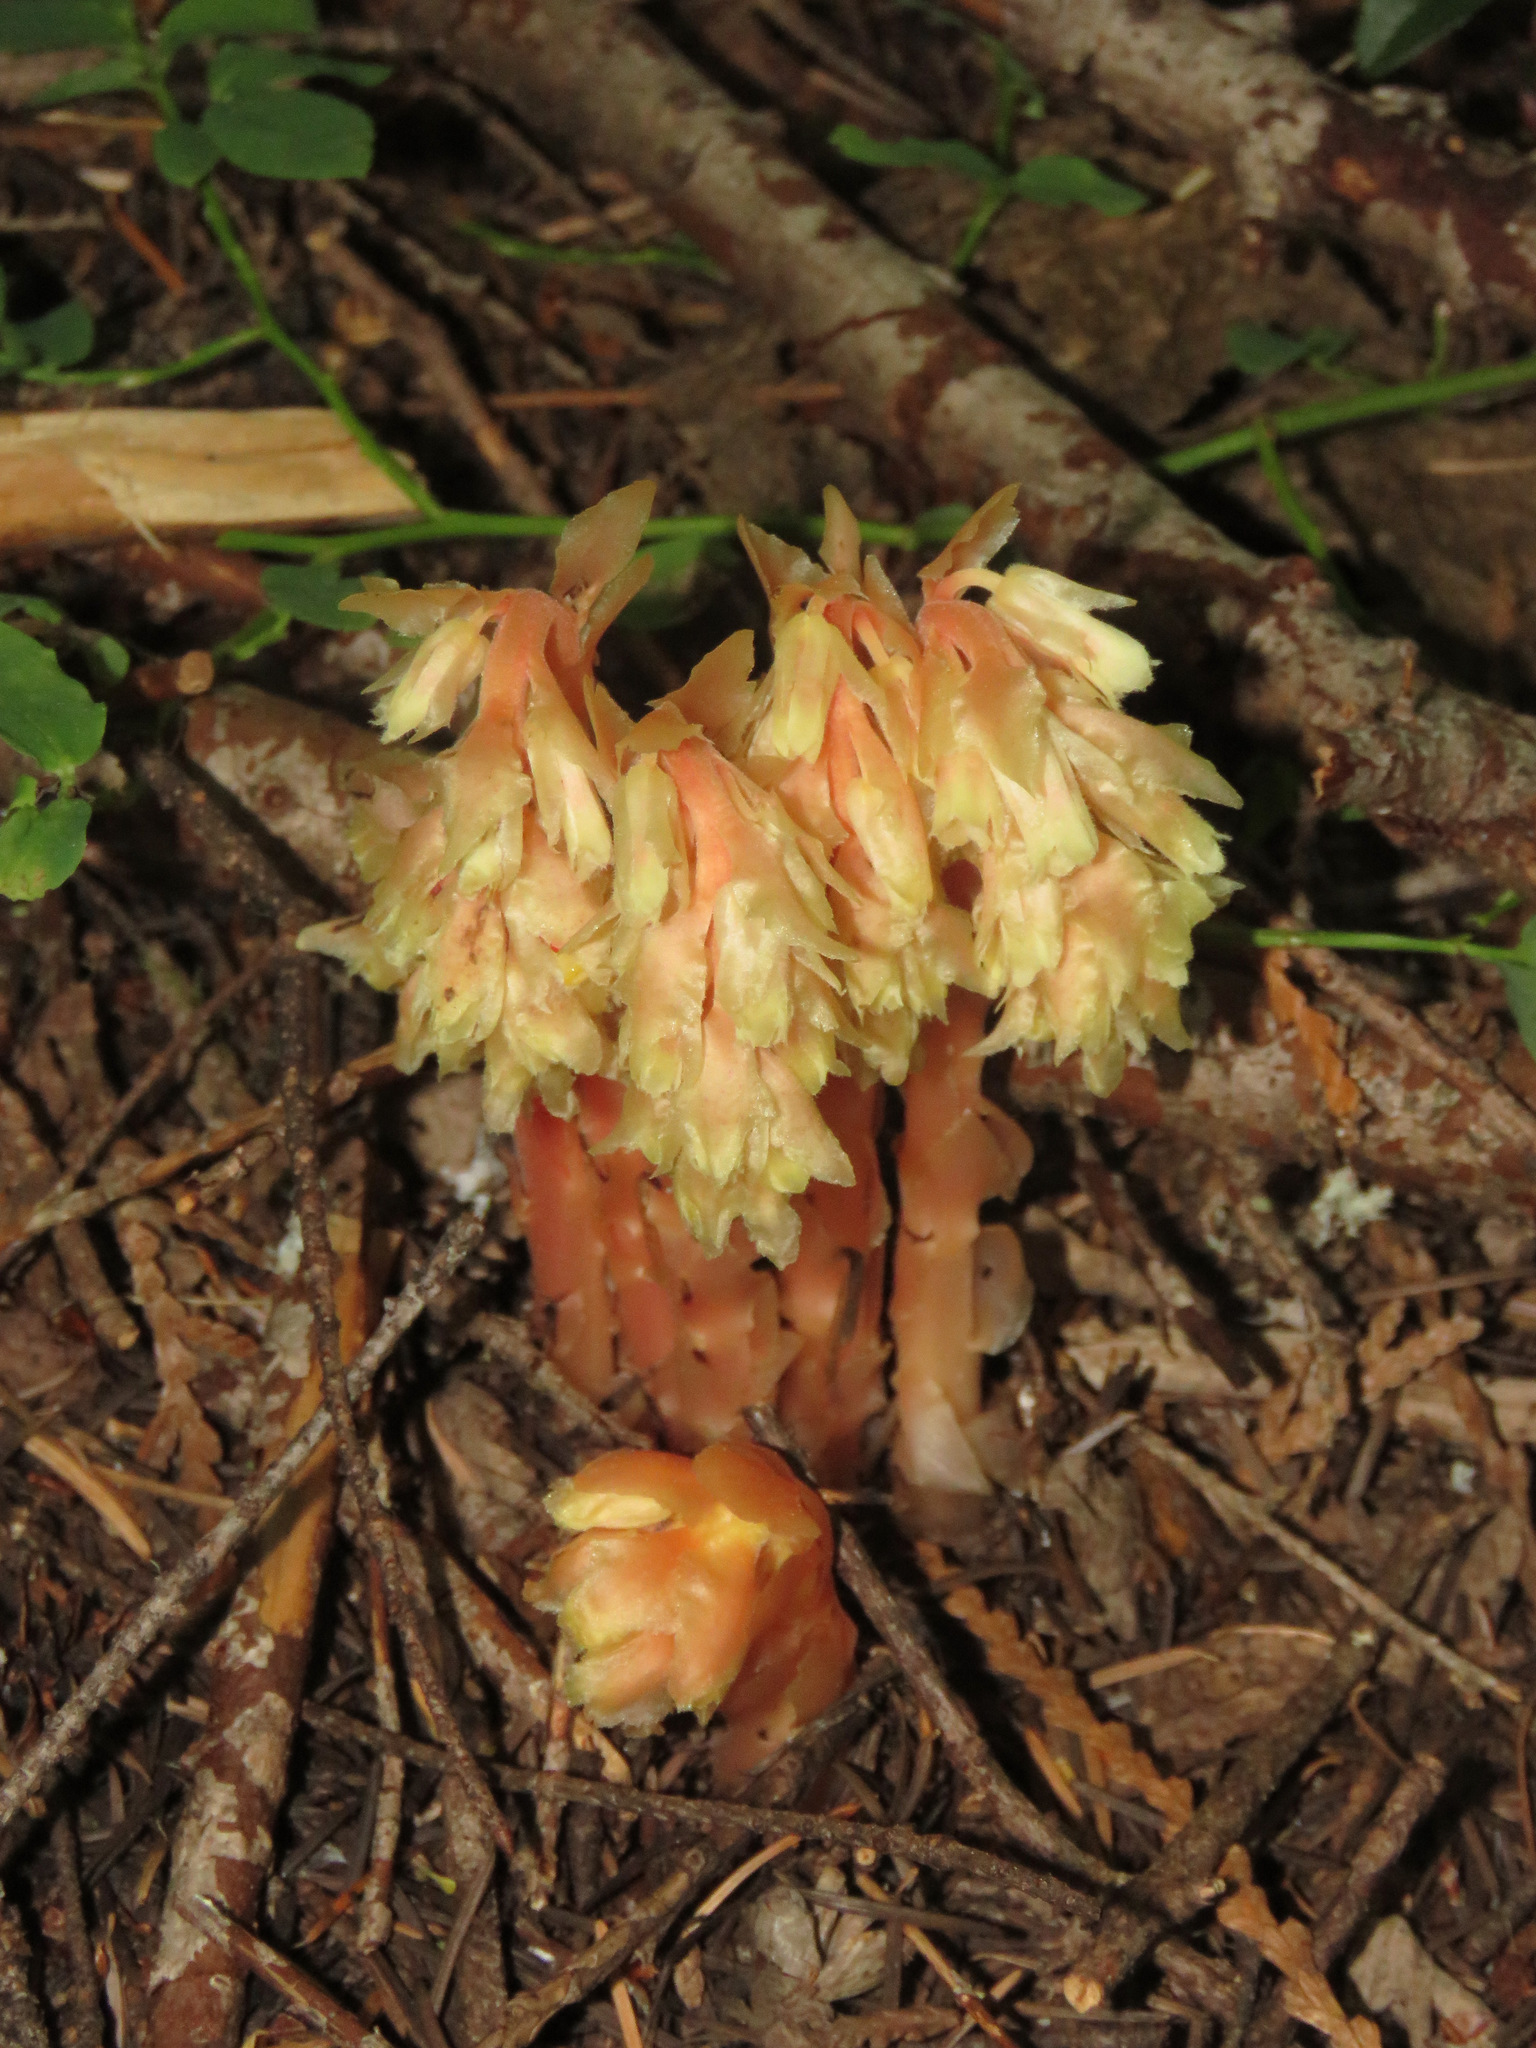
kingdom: Plantae
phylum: Tracheophyta
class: Magnoliopsida
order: Ericales
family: Ericaceae
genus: Hypopitys
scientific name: Hypopitys monotropa
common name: Yellow bird's-nest
